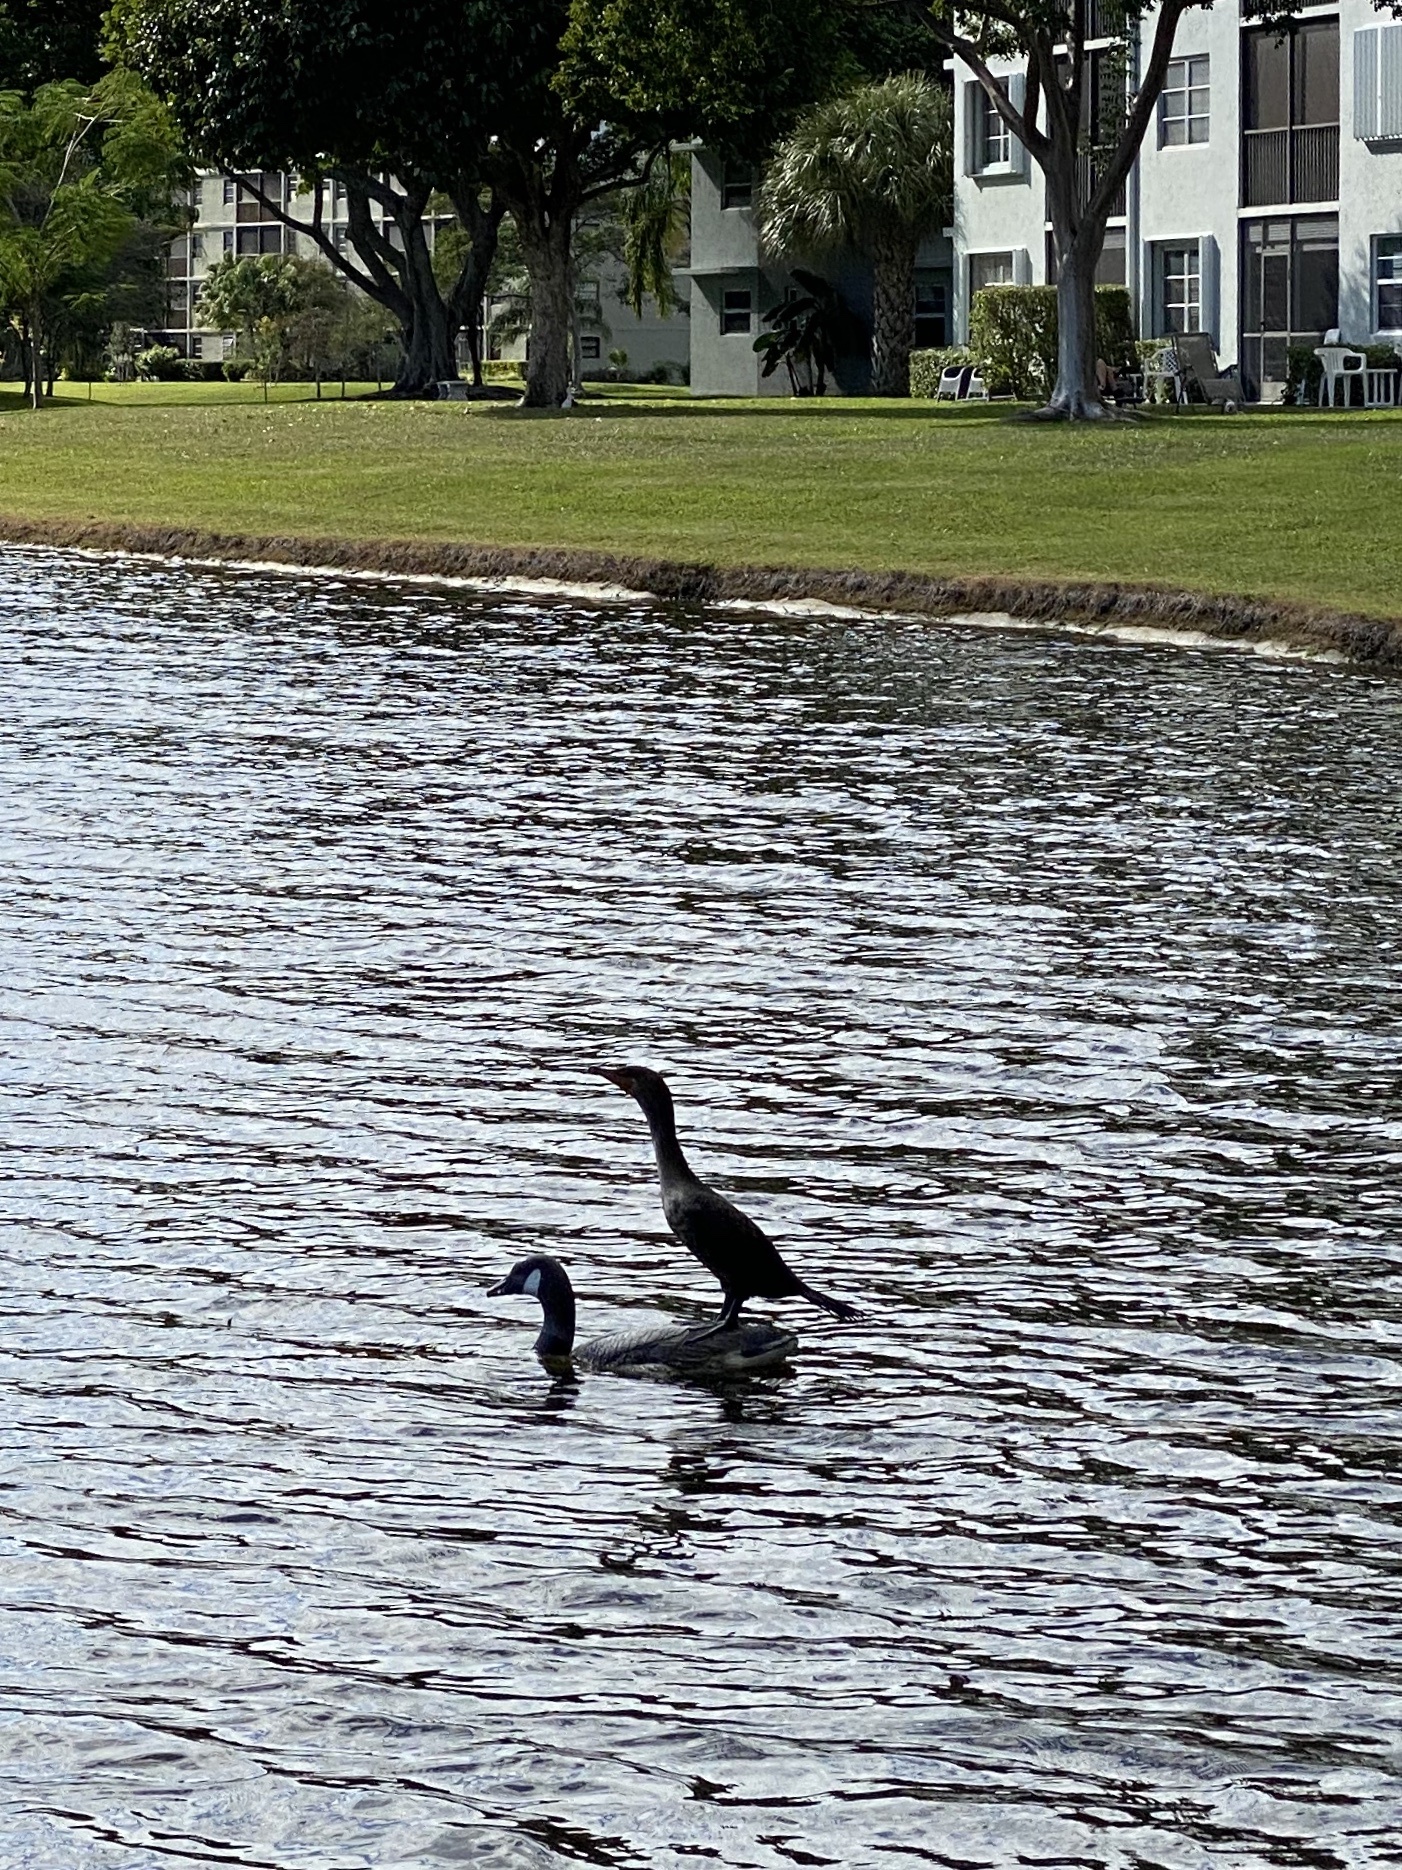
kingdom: Animalia
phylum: Chordata
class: Aves
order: Suliformes
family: Phalacrocoracidae
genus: Phalacrocorax
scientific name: Phalacrocorax auritus
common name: Double-crested cormorant
